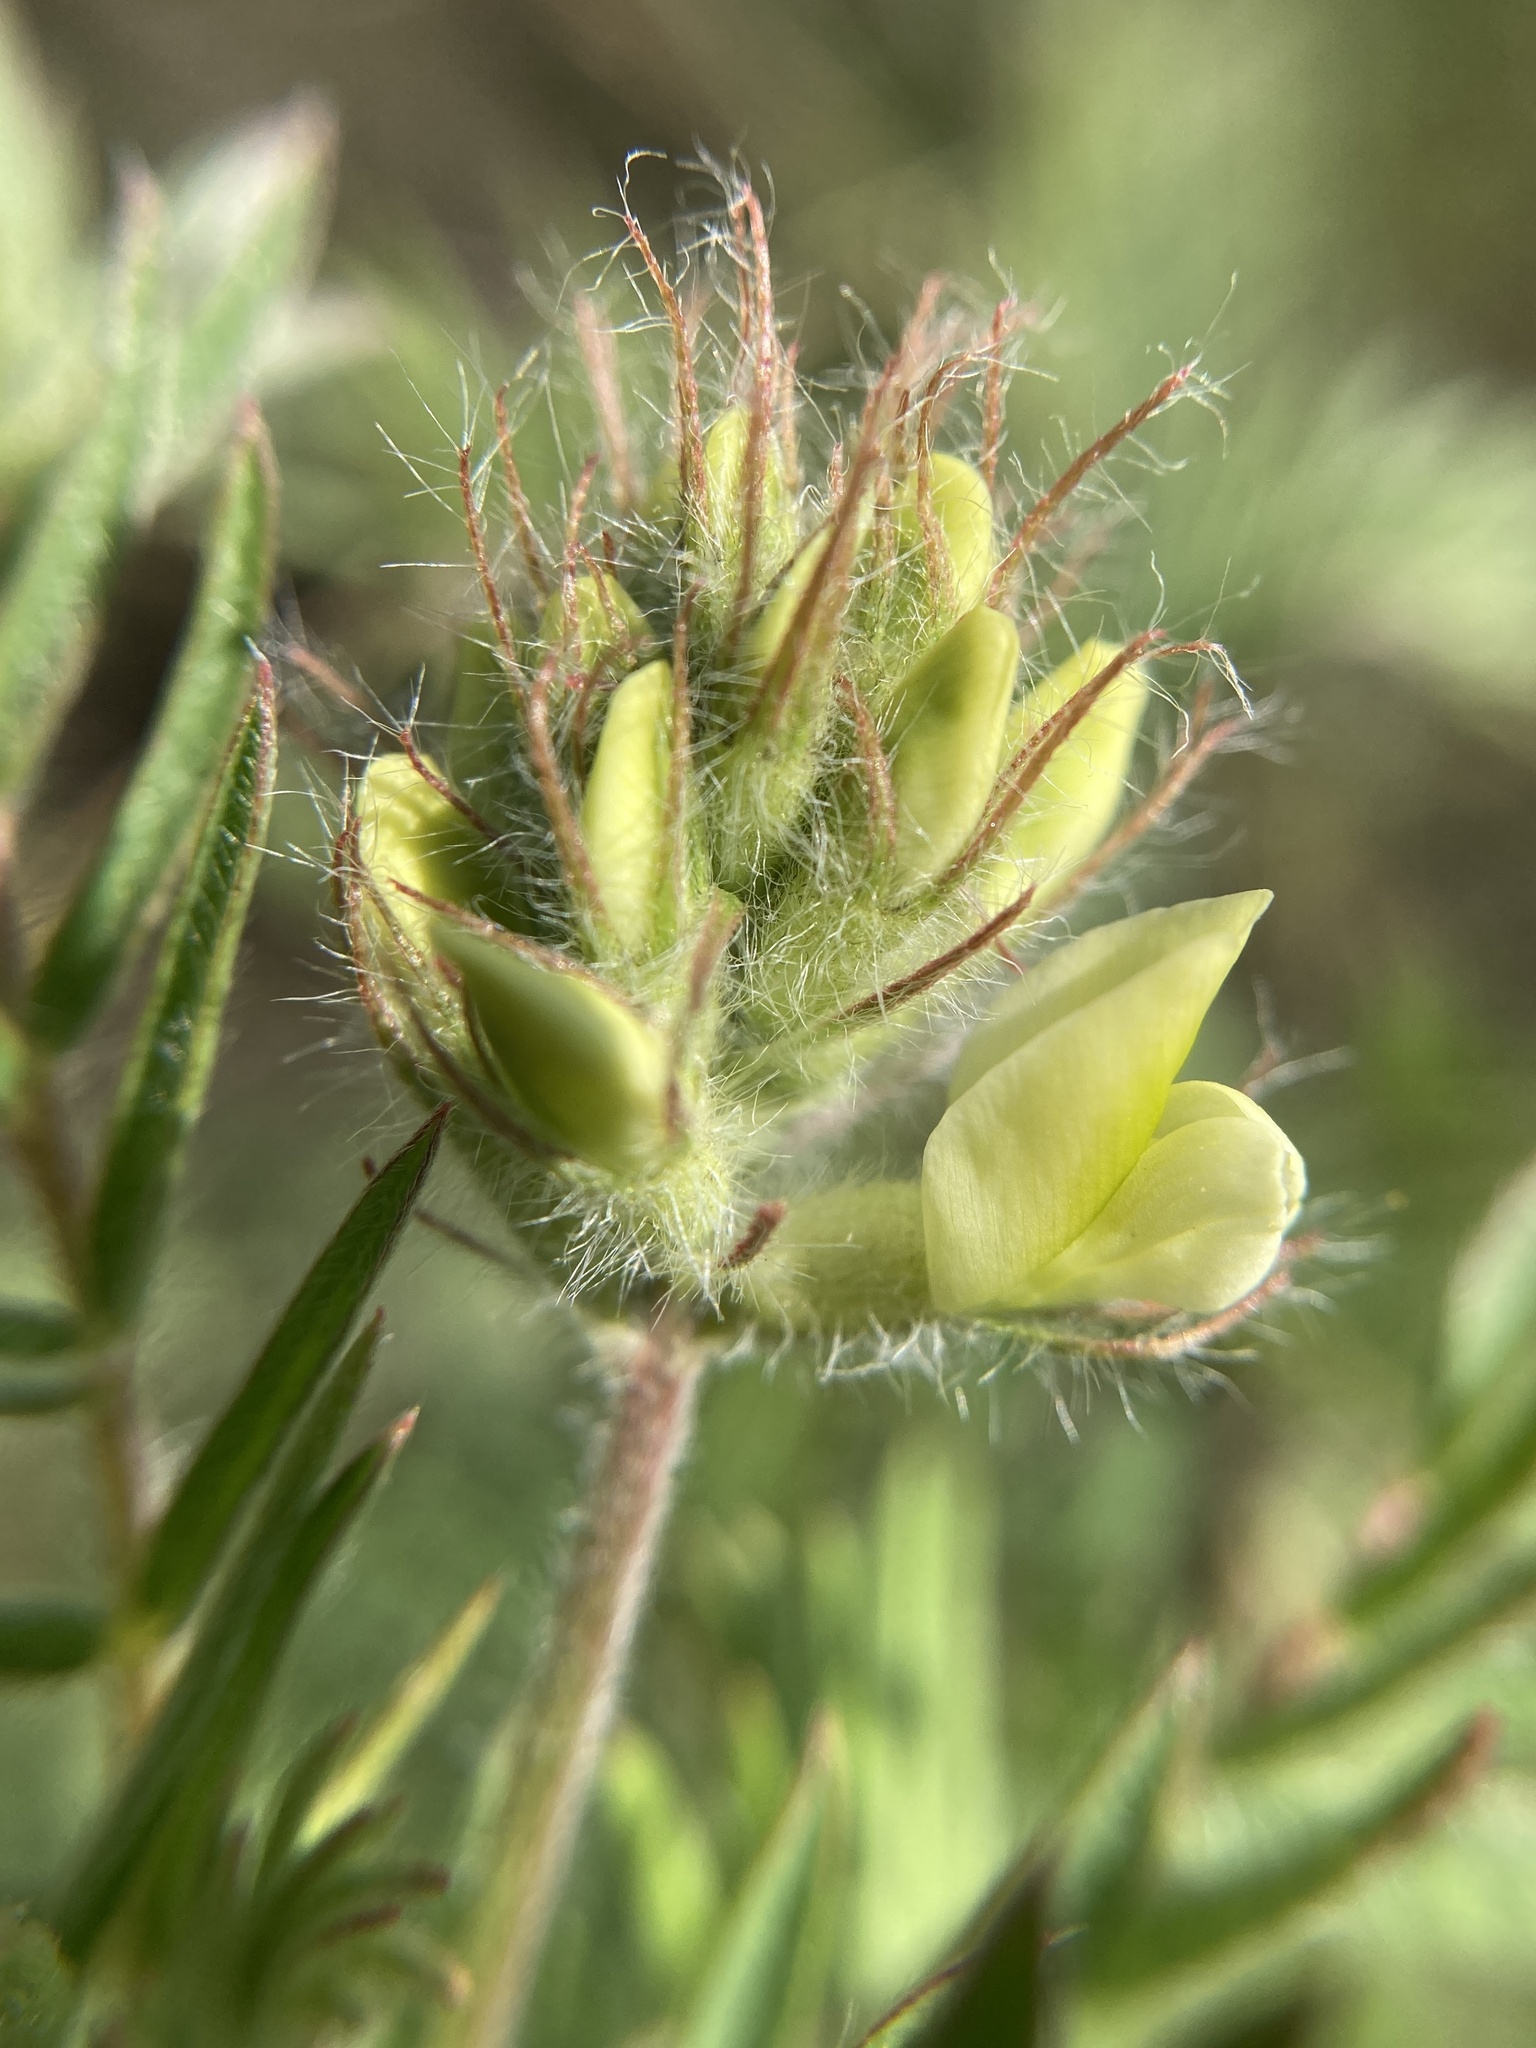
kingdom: Plantae
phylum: Tracheophyta
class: Magnoliopsida
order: Fabales
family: Fabaceae
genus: Oxytropis
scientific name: Oxytropis pilosa
